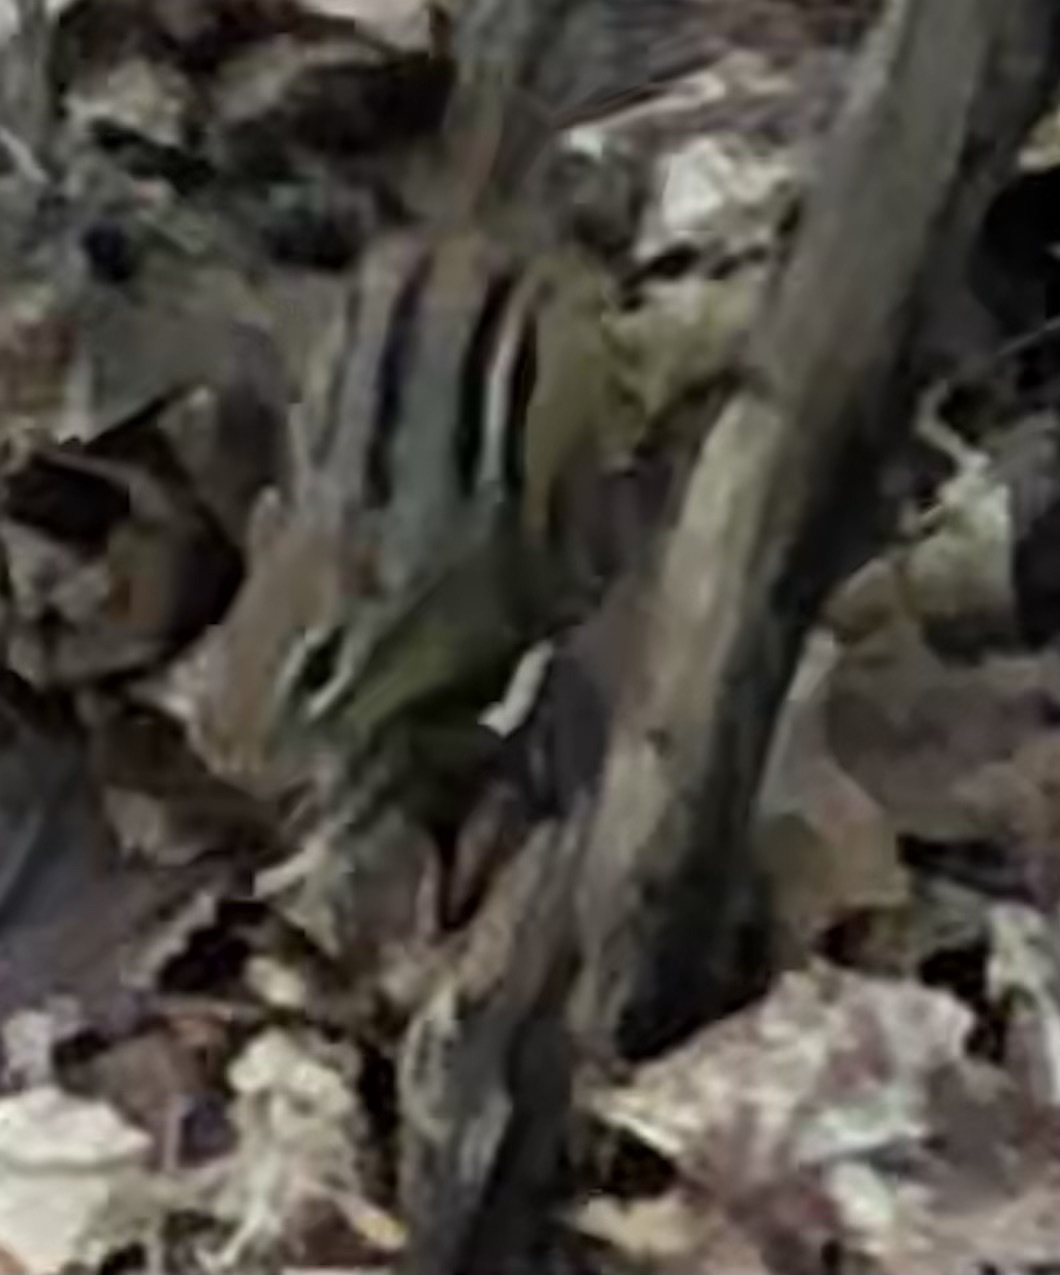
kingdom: Animalia
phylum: Chordata
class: Mammalia
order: Rodentia
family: Sciuridae
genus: Tamias
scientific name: Tamias striatus
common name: Eastern chipmunk
